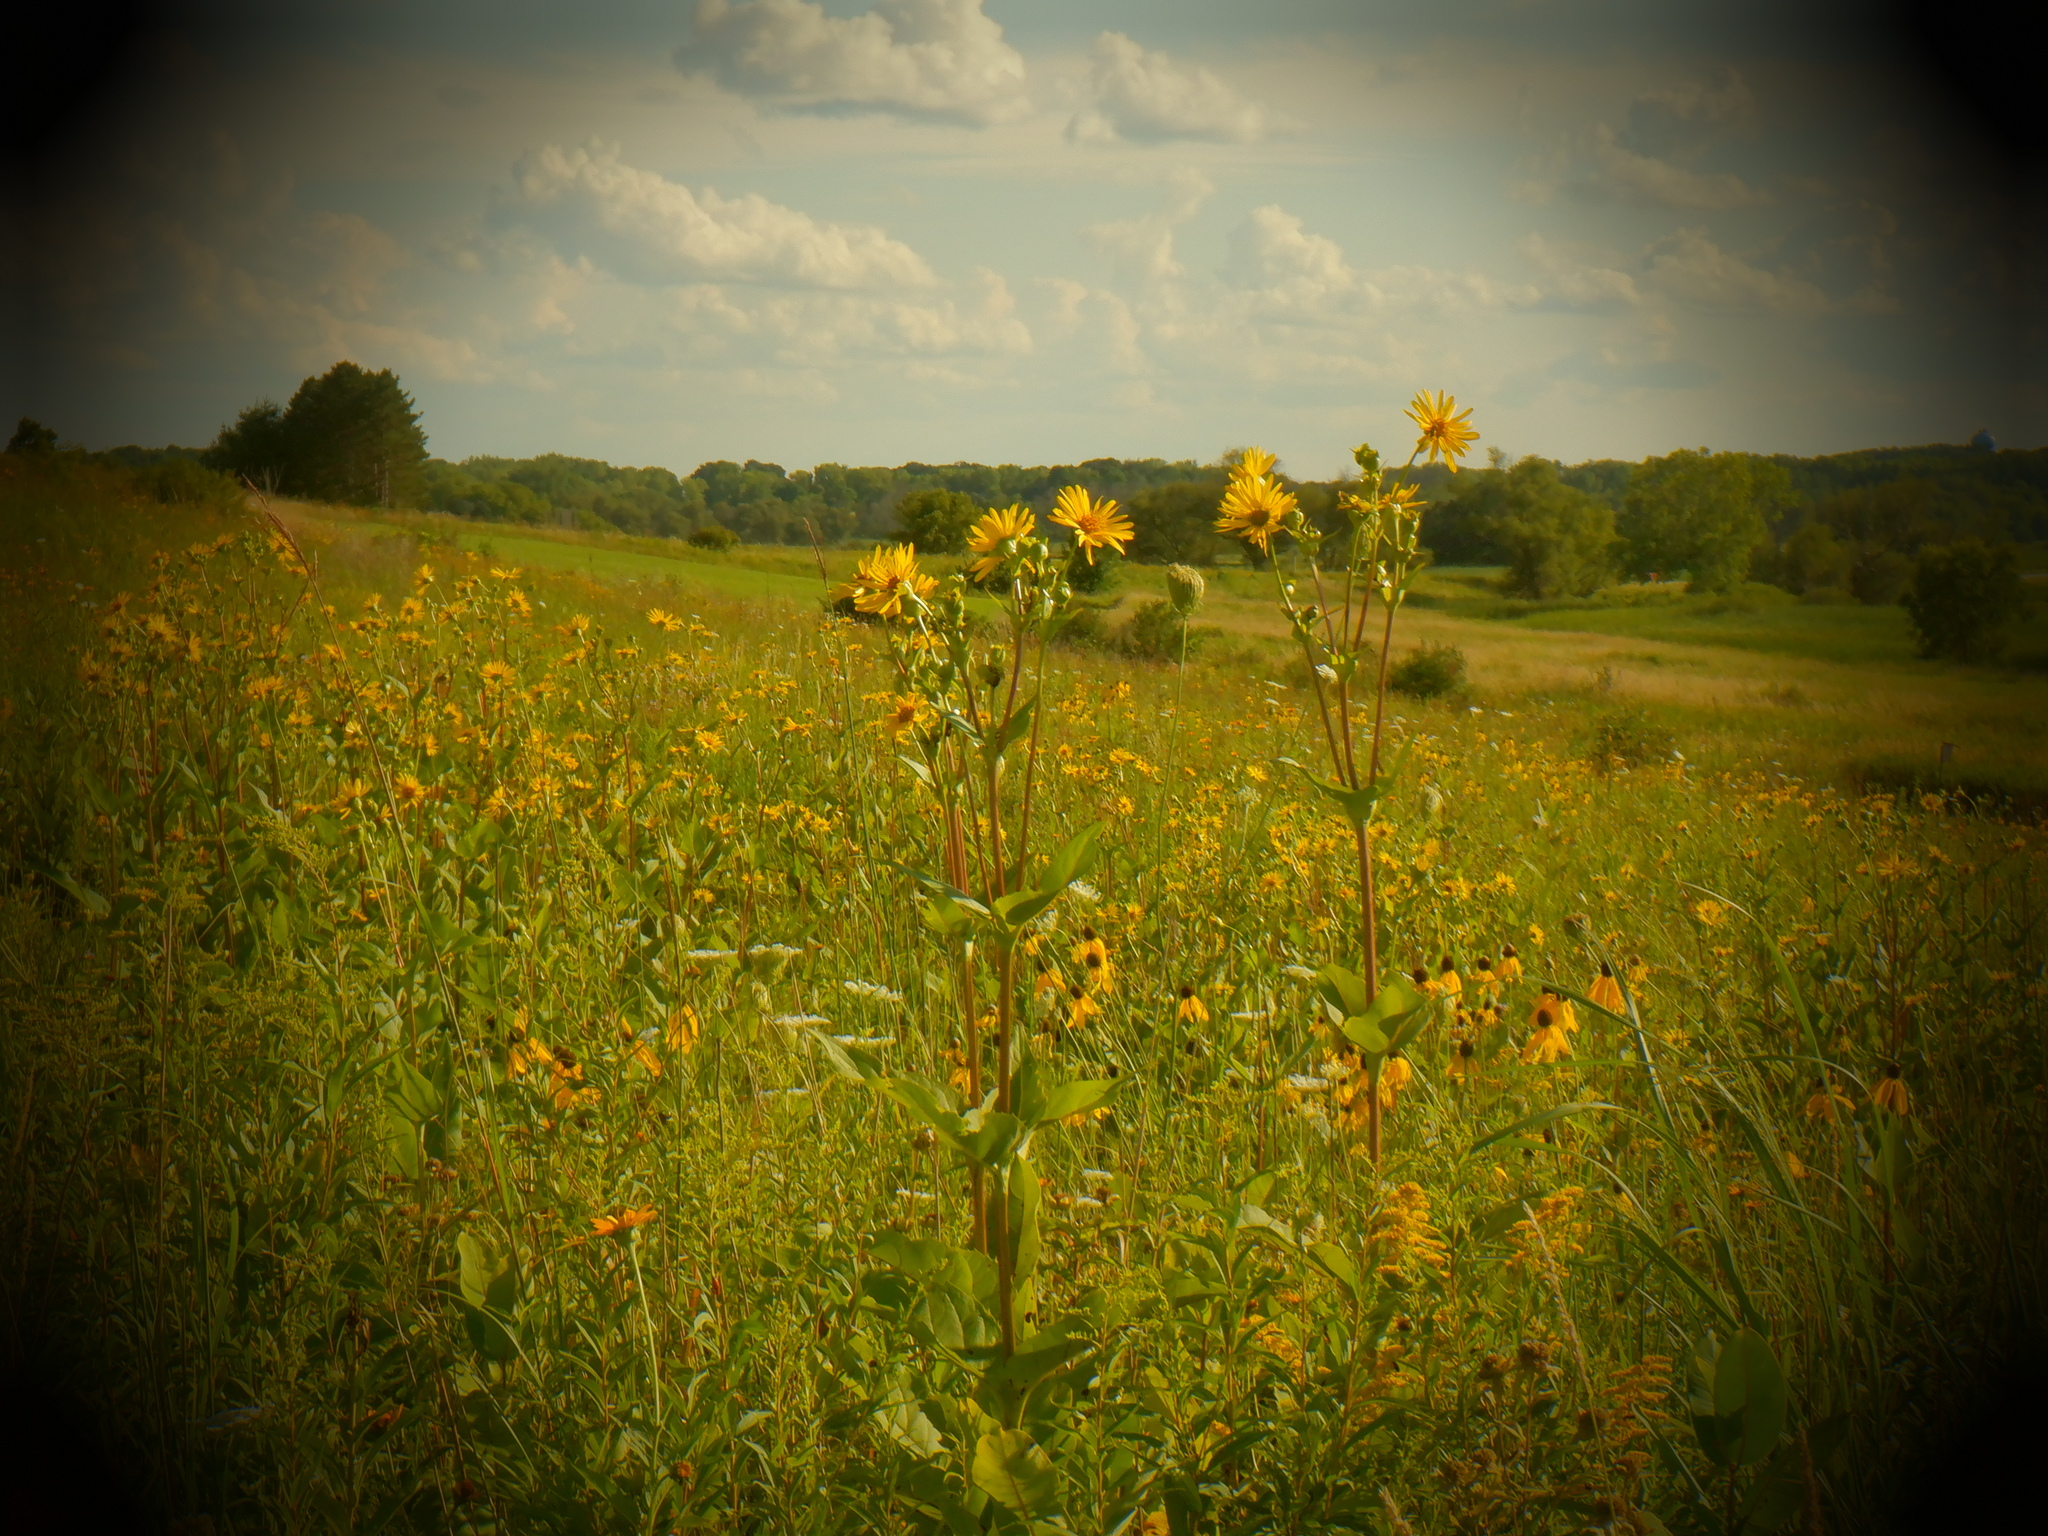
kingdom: Plantae
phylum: Tracheophyta
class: Magnoliopsida
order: Asterales
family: Asteraceae
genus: Silphium
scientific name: Silphium perfoliatum
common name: Cup-plant
